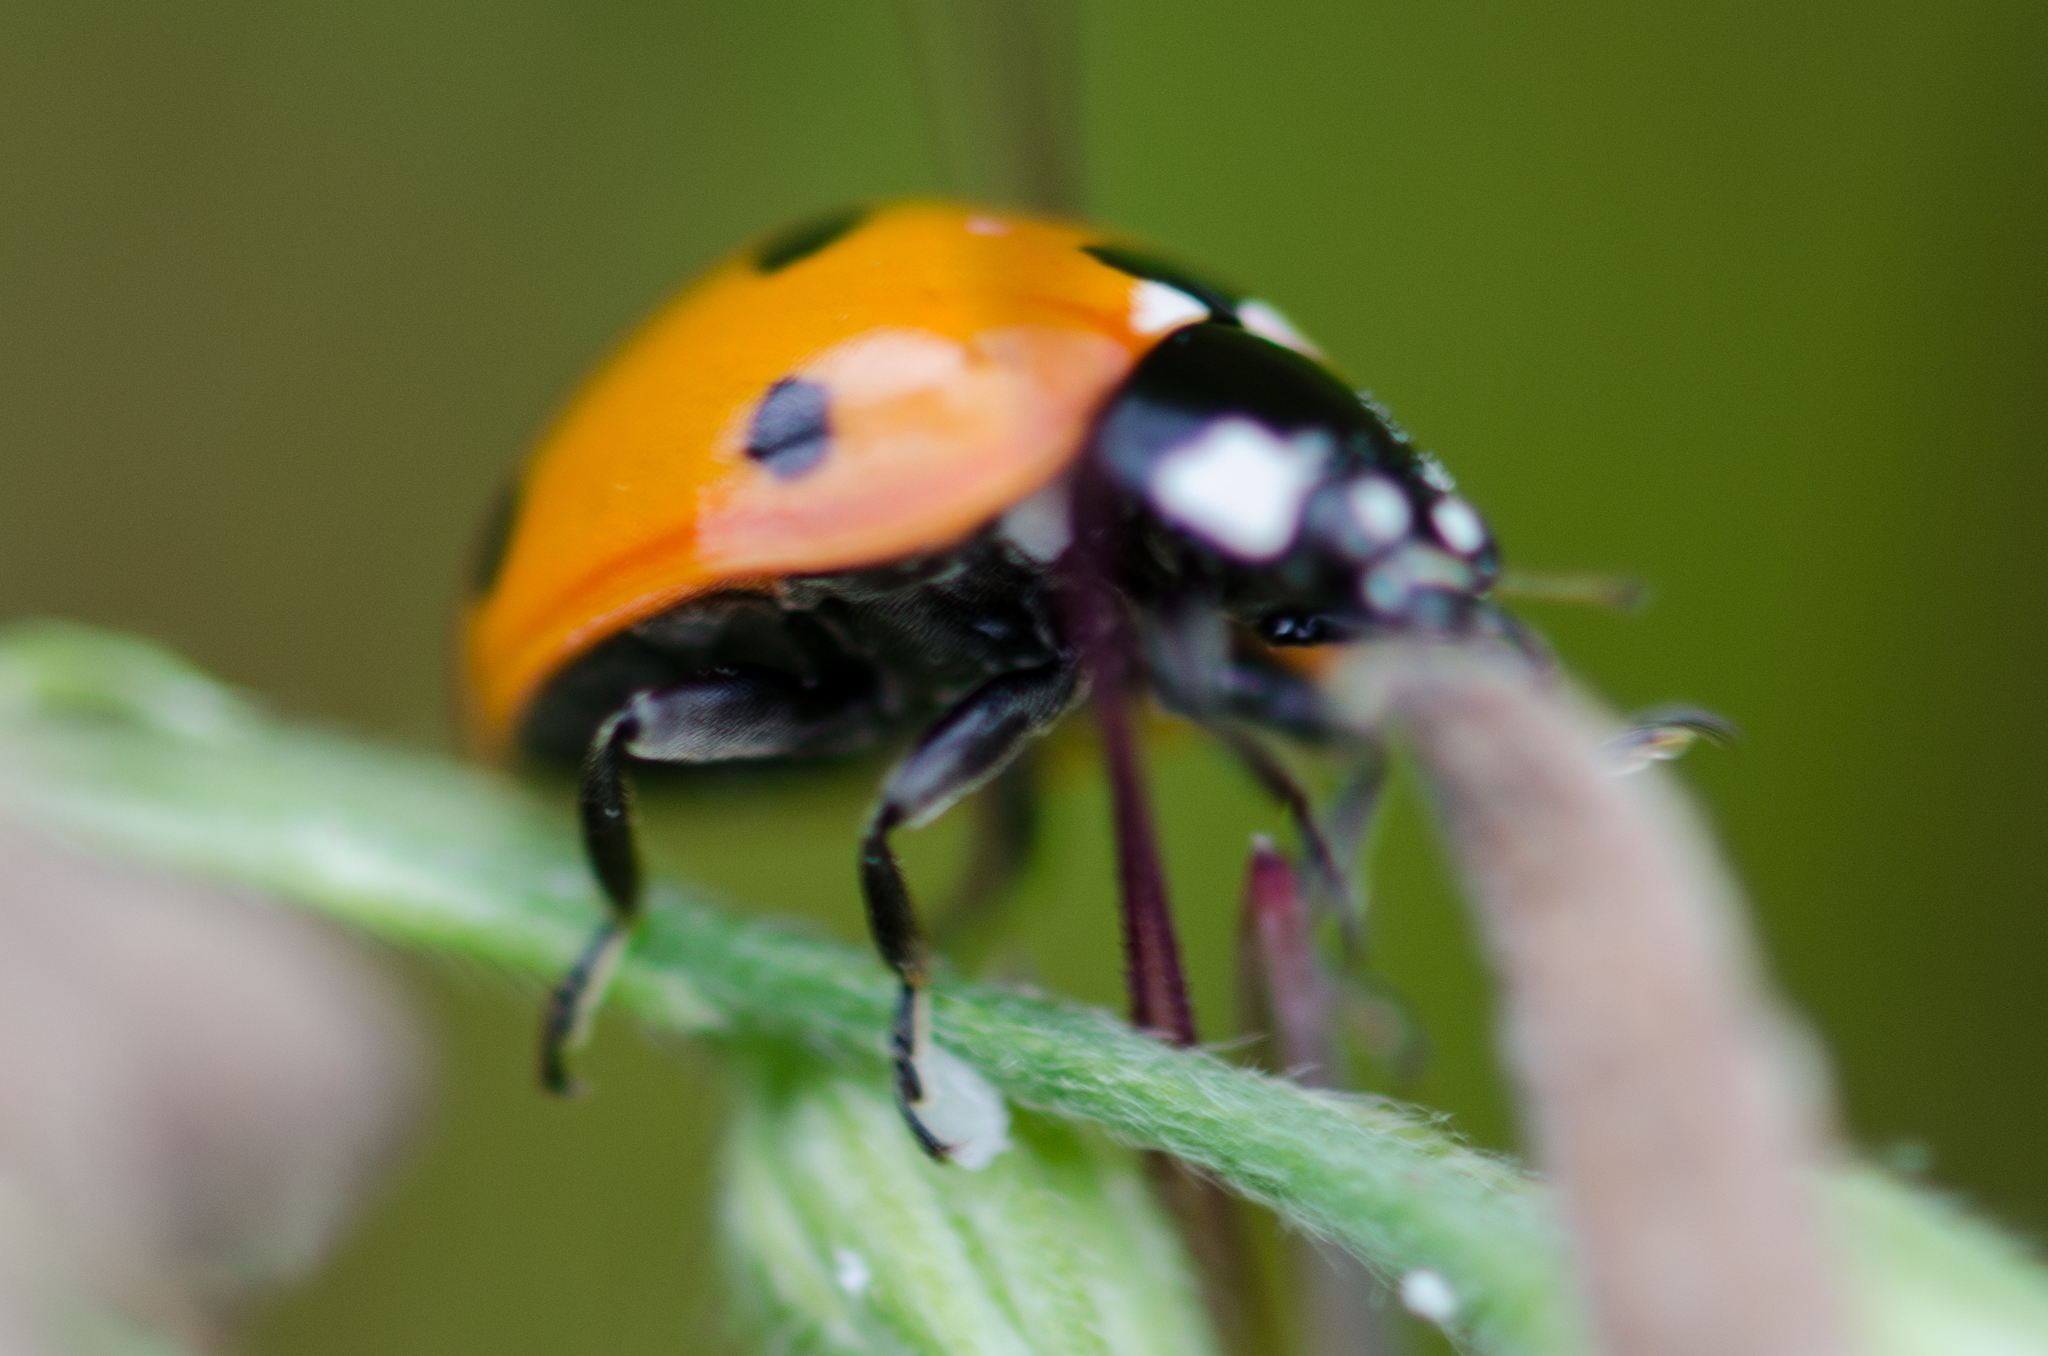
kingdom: Animalia
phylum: Arthropoda
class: Insecta
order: Coleoptera
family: Coccinellidae
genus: Coccinella
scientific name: Coccinella septempunctata
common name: Sevenspotted lady beetle
